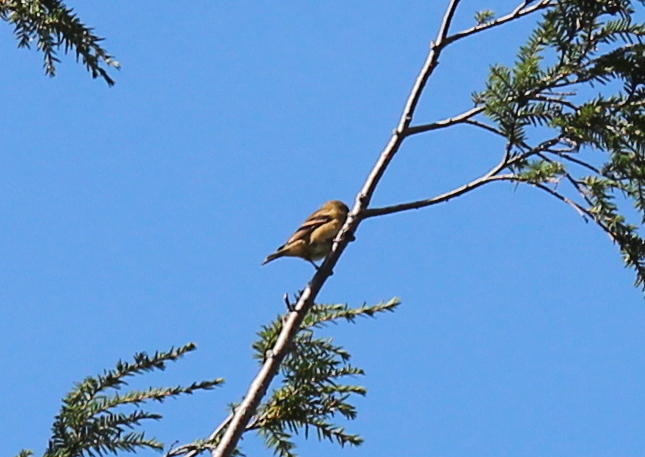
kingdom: Animalia
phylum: Chordata
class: Aves
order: Passeriformes
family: Fringillidae
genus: Spinus
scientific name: Spinus tristis
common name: American goldfinch
